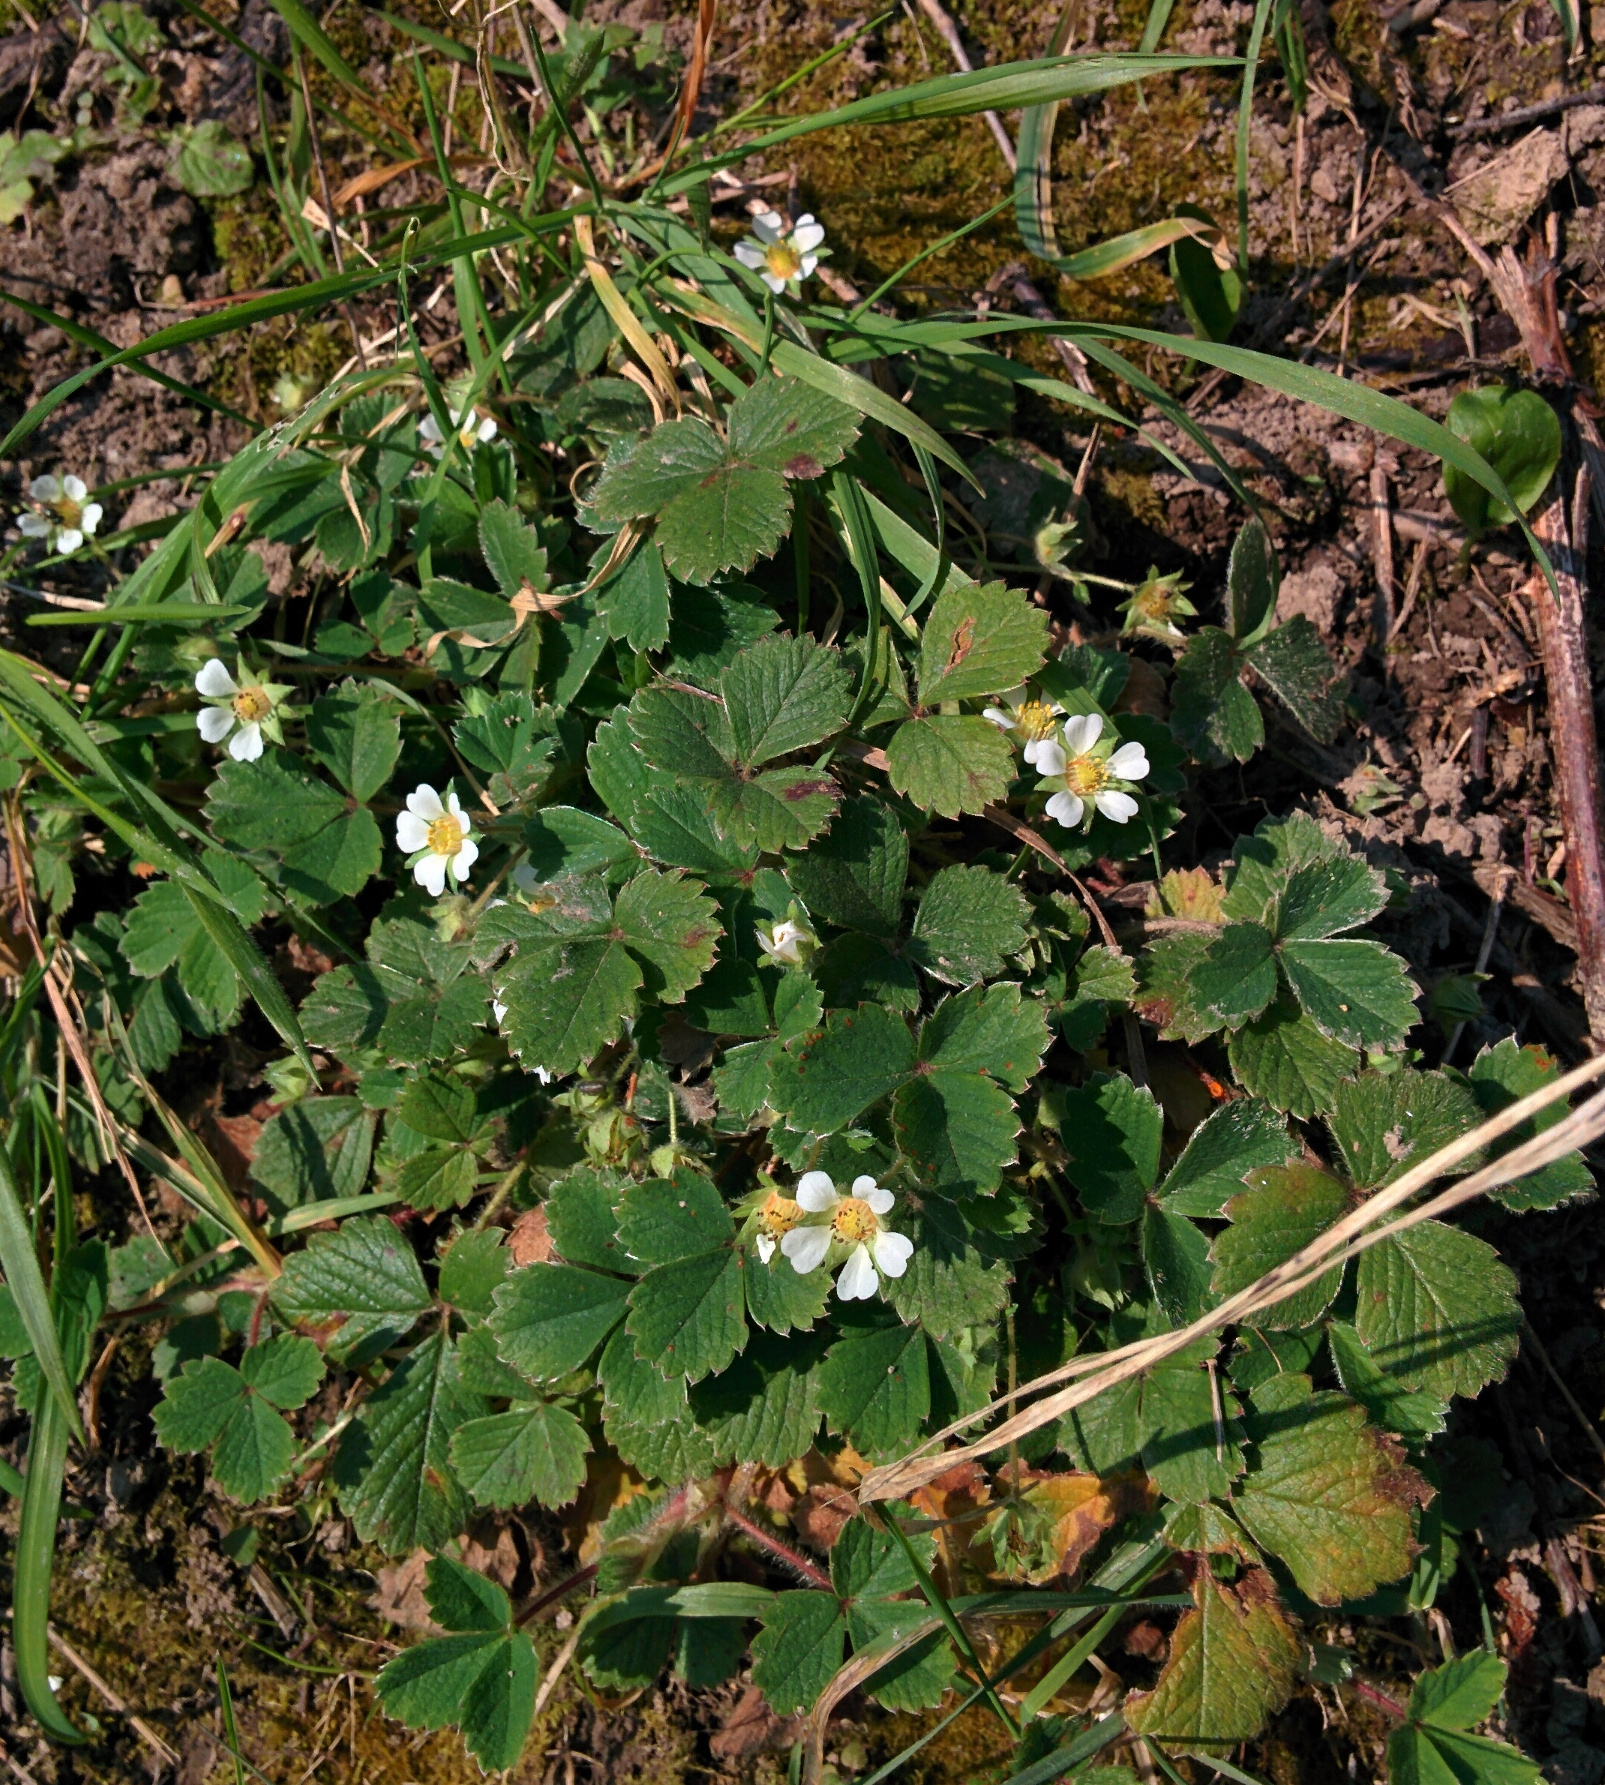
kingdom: Plantae
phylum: Tracheophyta
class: Magnoliopsida
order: Rosales
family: Rosaceae
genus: Potentilla
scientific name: Potentilla sterilis
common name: Barren strawberry
